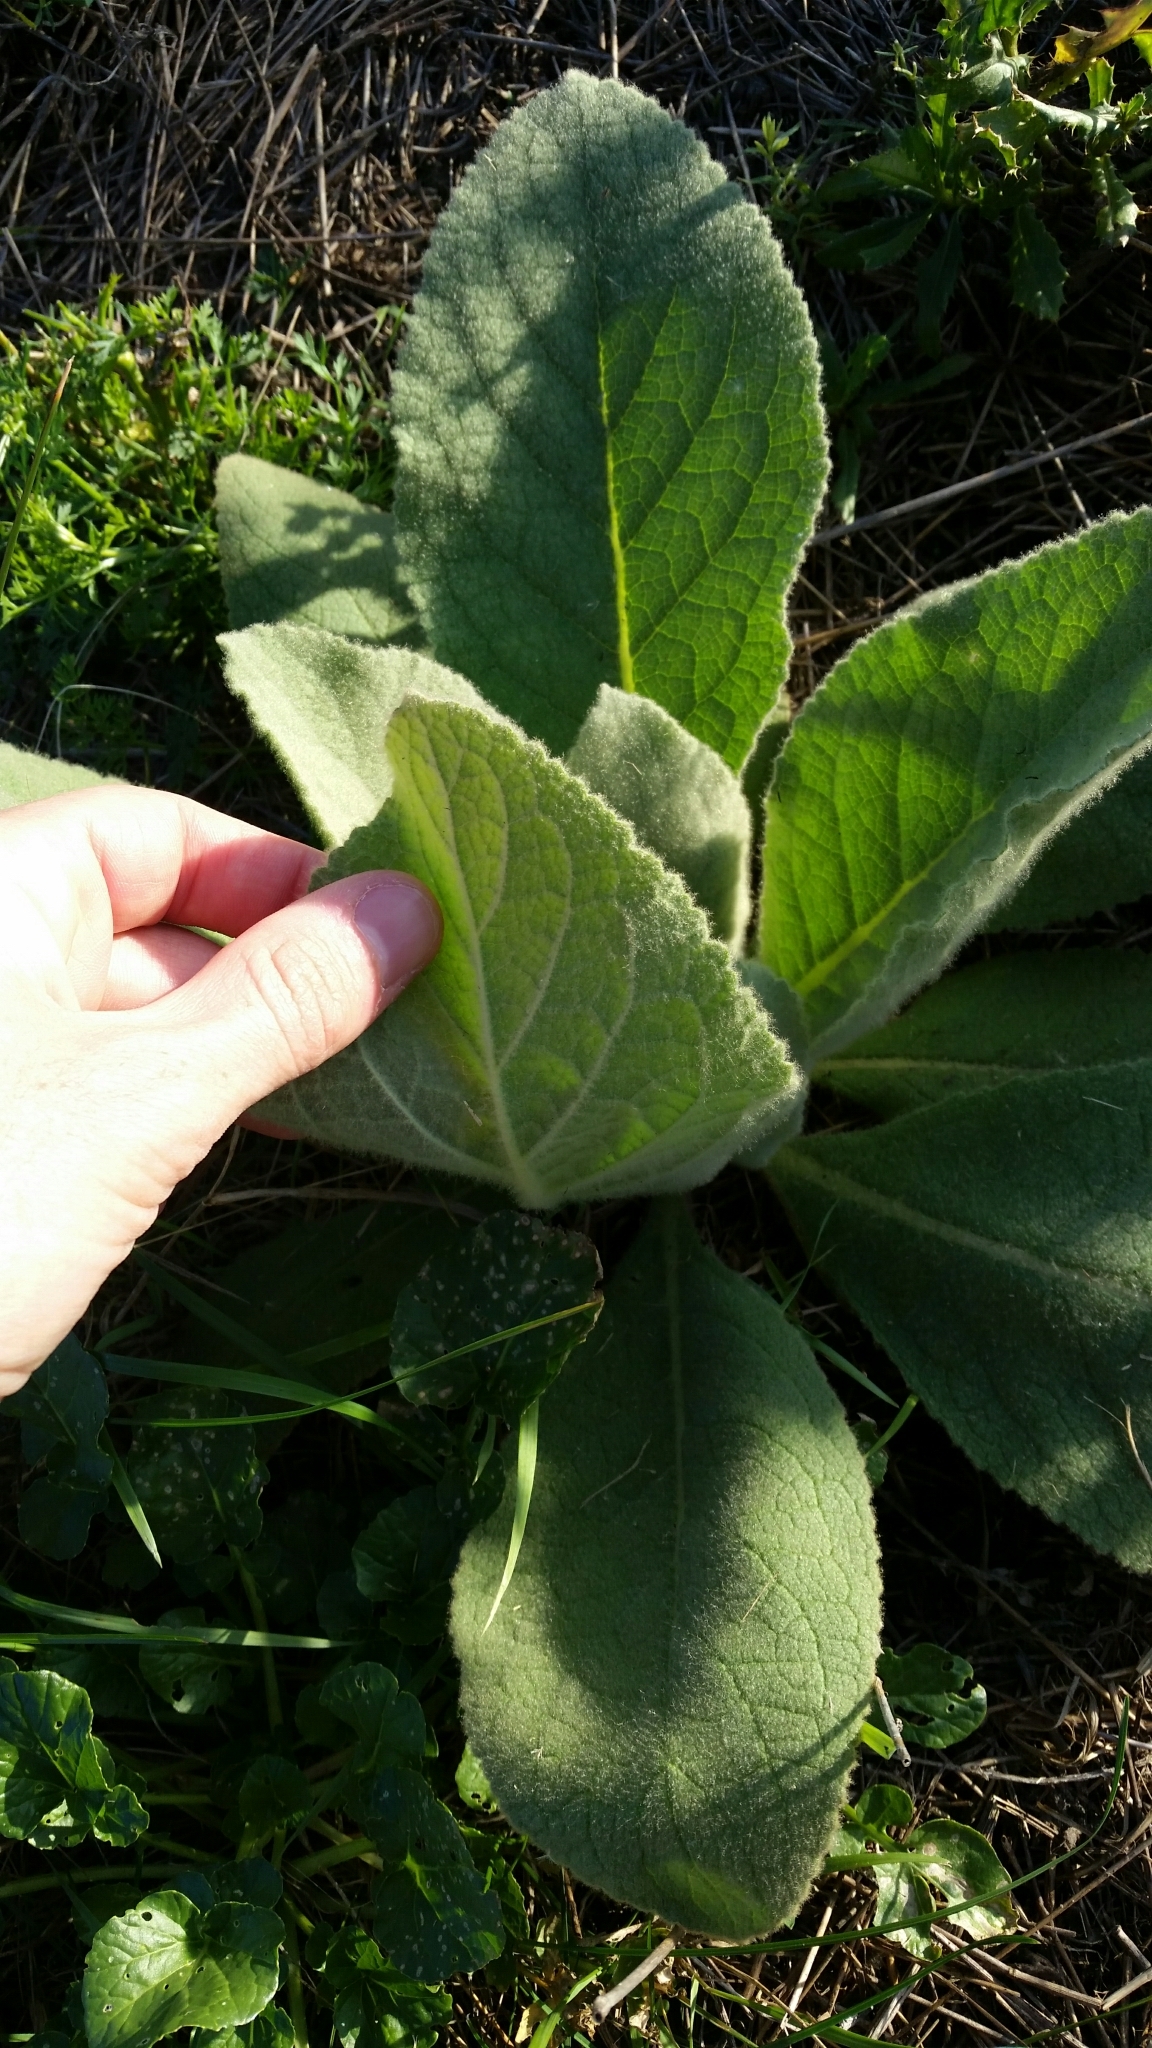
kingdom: Plantae
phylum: Tracheophyta
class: Magnoliopsida
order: Lamiales
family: Scrophulariaceae
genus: Verbascum
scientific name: Verbascum thapsus
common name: Common mullein
